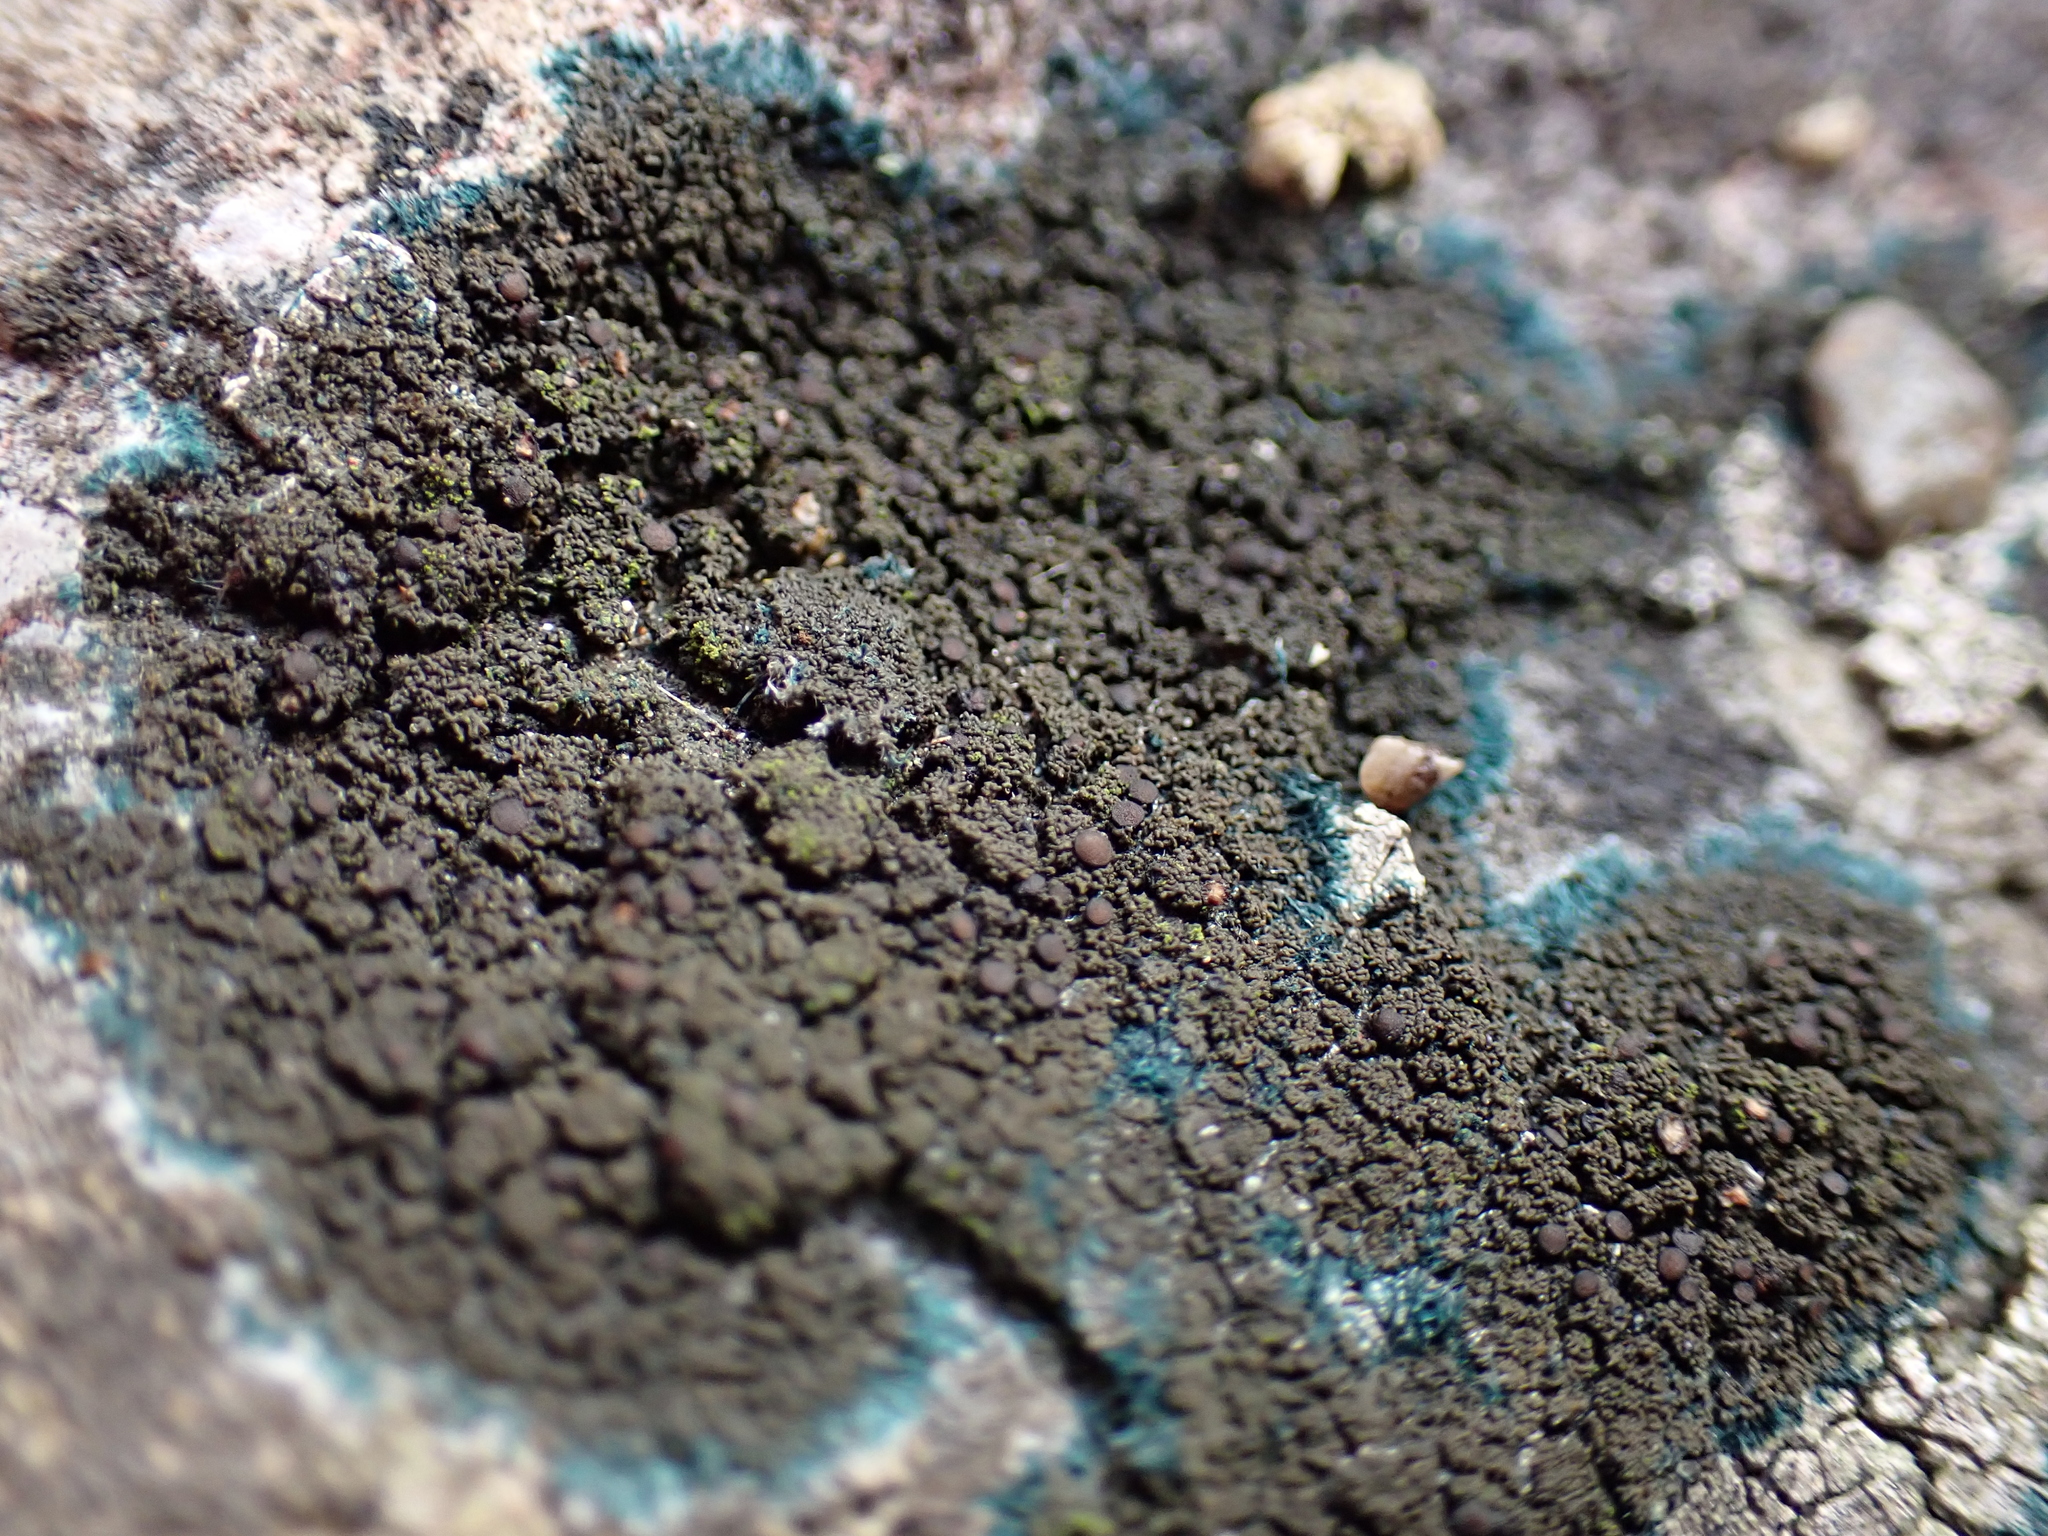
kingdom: Fungi
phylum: Ascomycota
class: Lecanoromycetes
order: Peltigerales
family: Placynthiaceae
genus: Placynthium
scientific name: Placynthium nigrum
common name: Blackthread lichen
